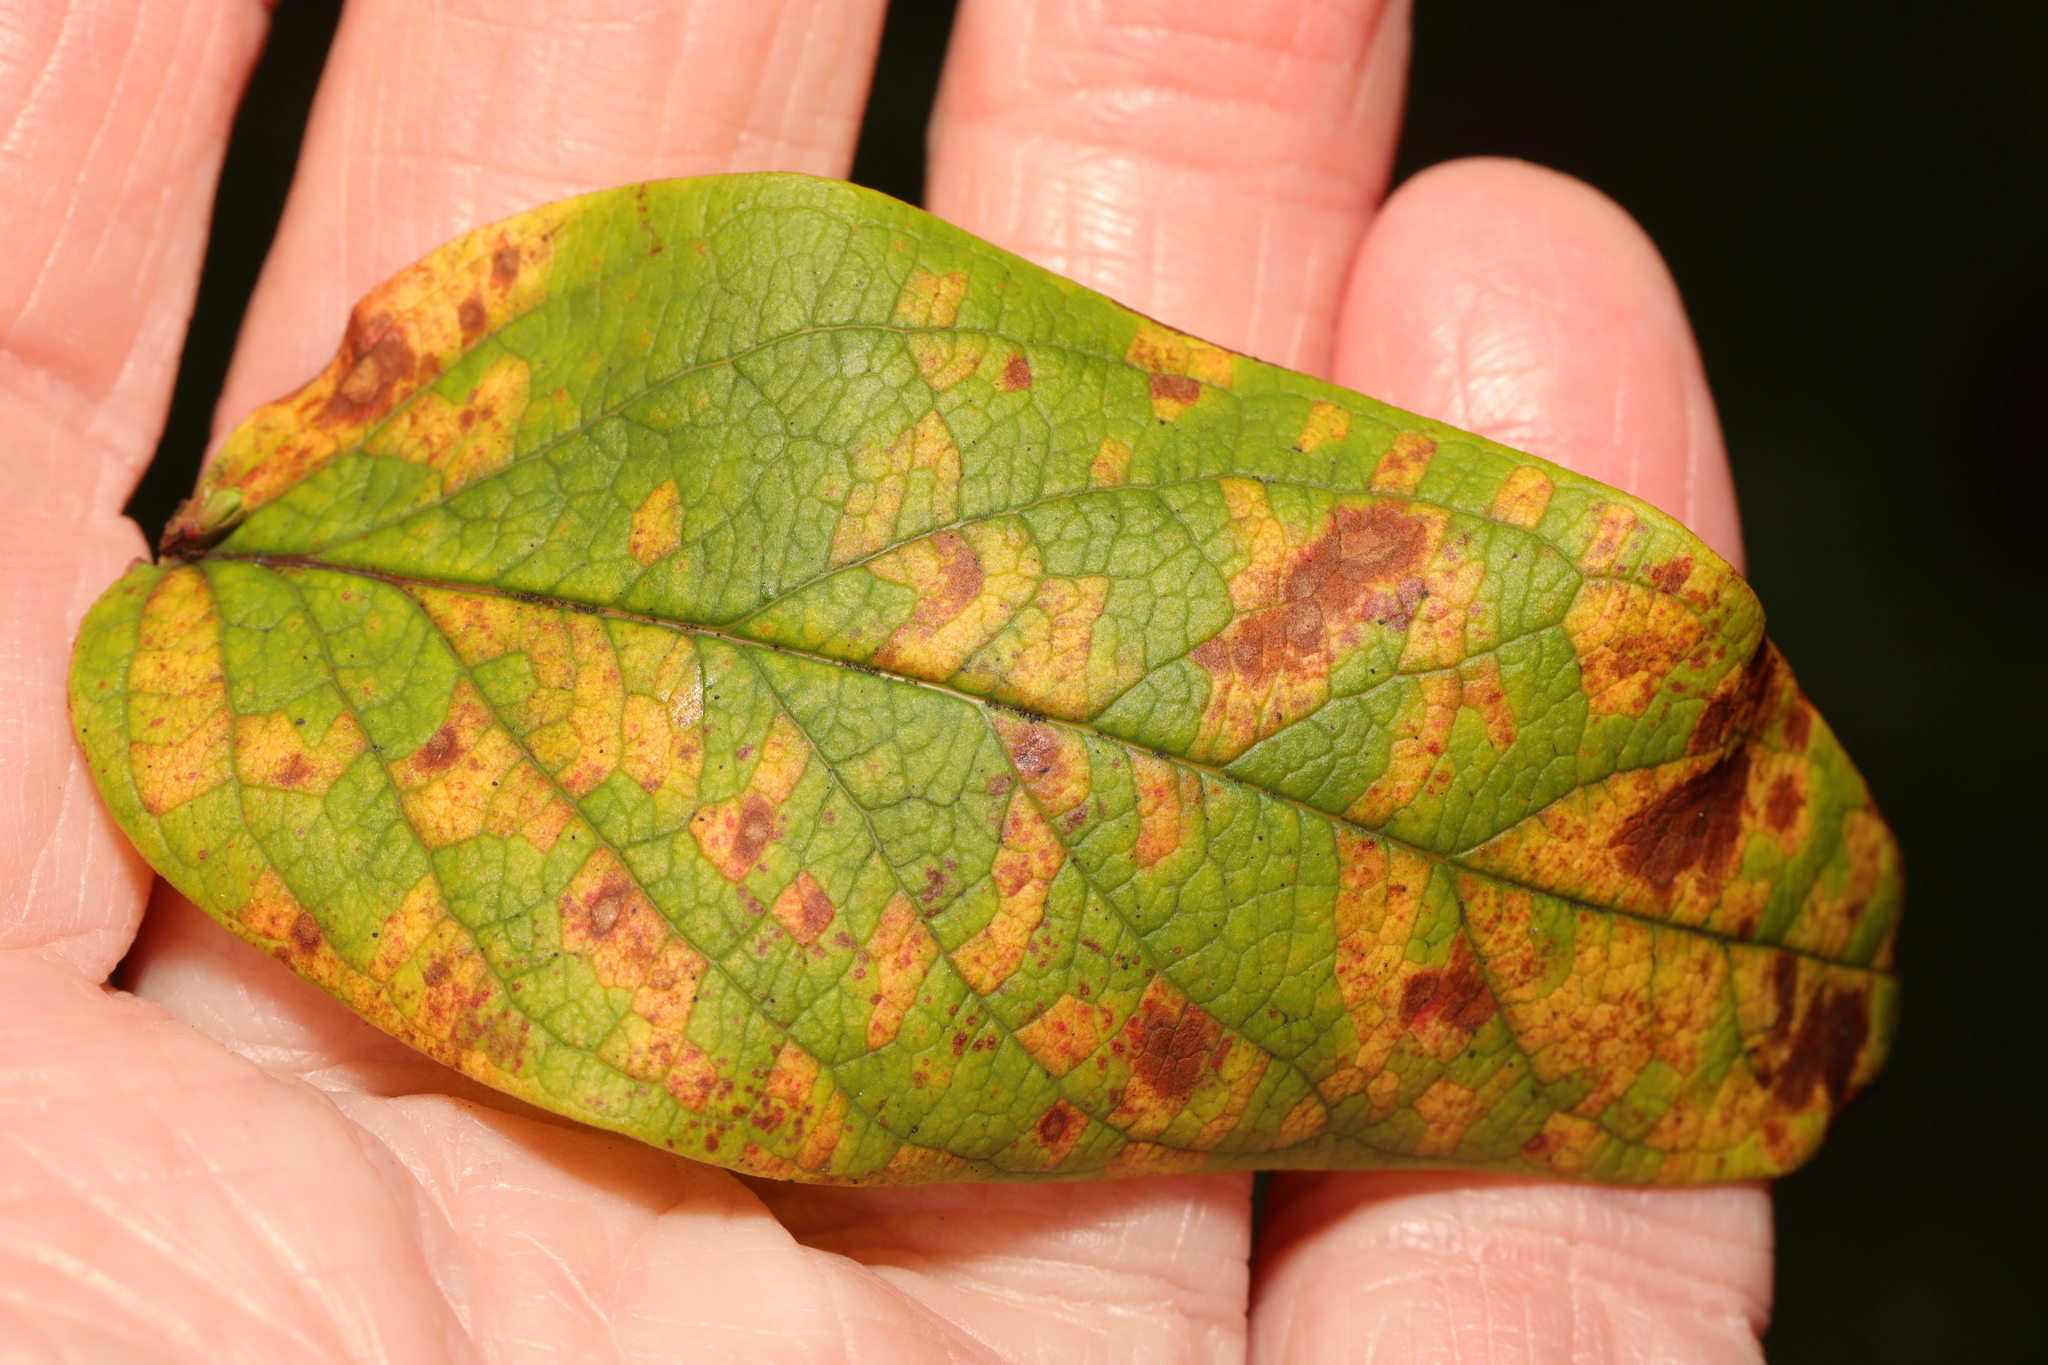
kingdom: Fungi
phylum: Basidiomycota
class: Pucciniomycetes
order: Pucciniales
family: Melampsoraceae
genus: Melampsora
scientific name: Melampsora
